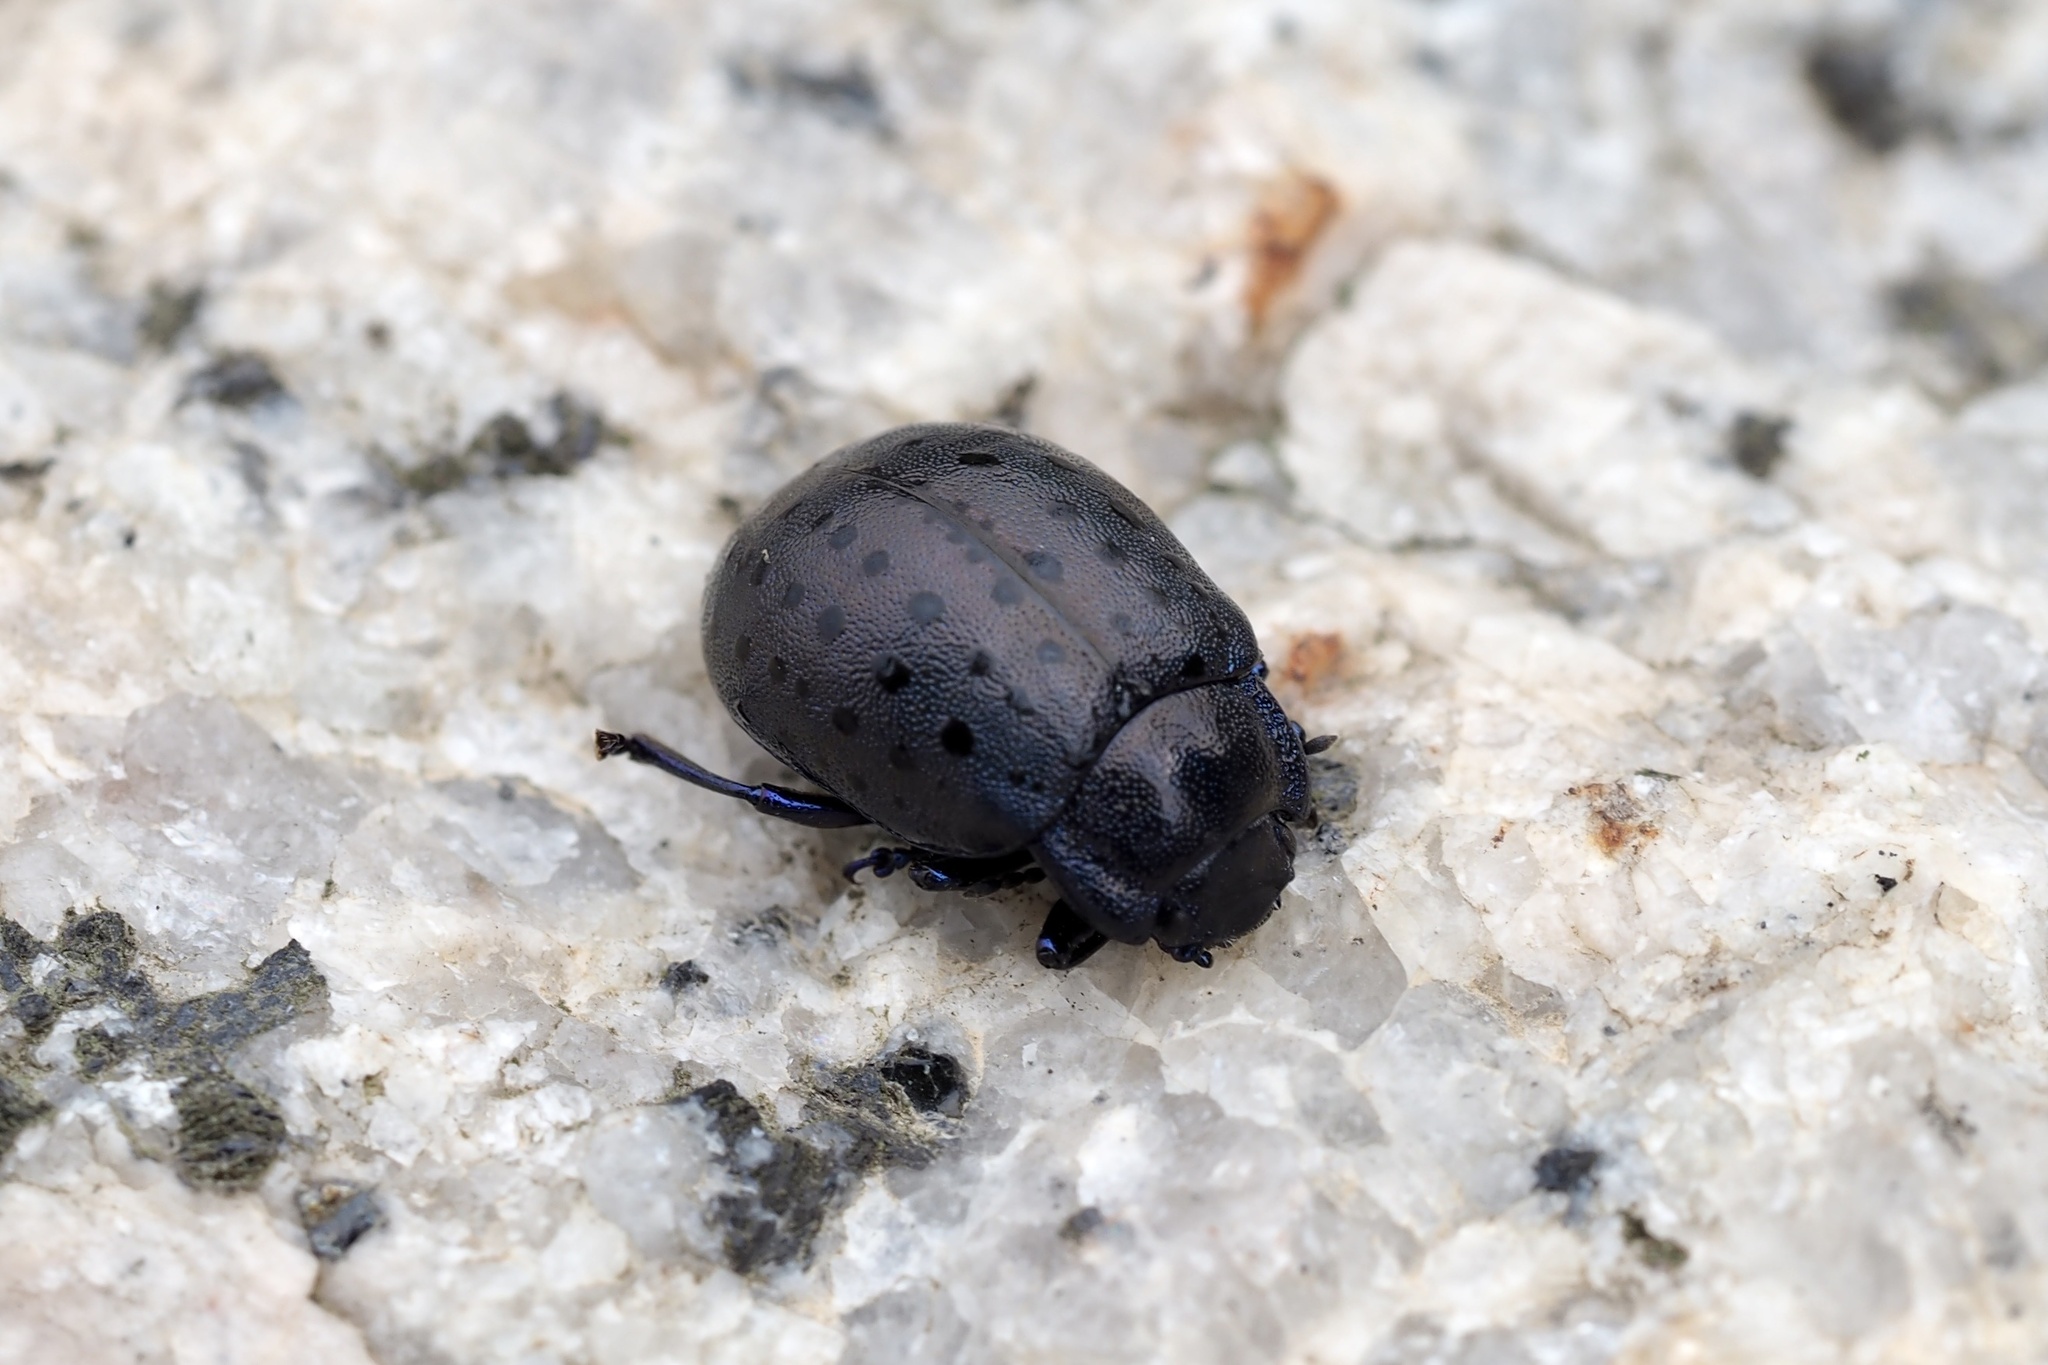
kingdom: Animalia
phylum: Arthropoda
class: Insecta
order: Coleoptera
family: Chrysomelidae
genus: Chrysolina
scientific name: Chrysolina
